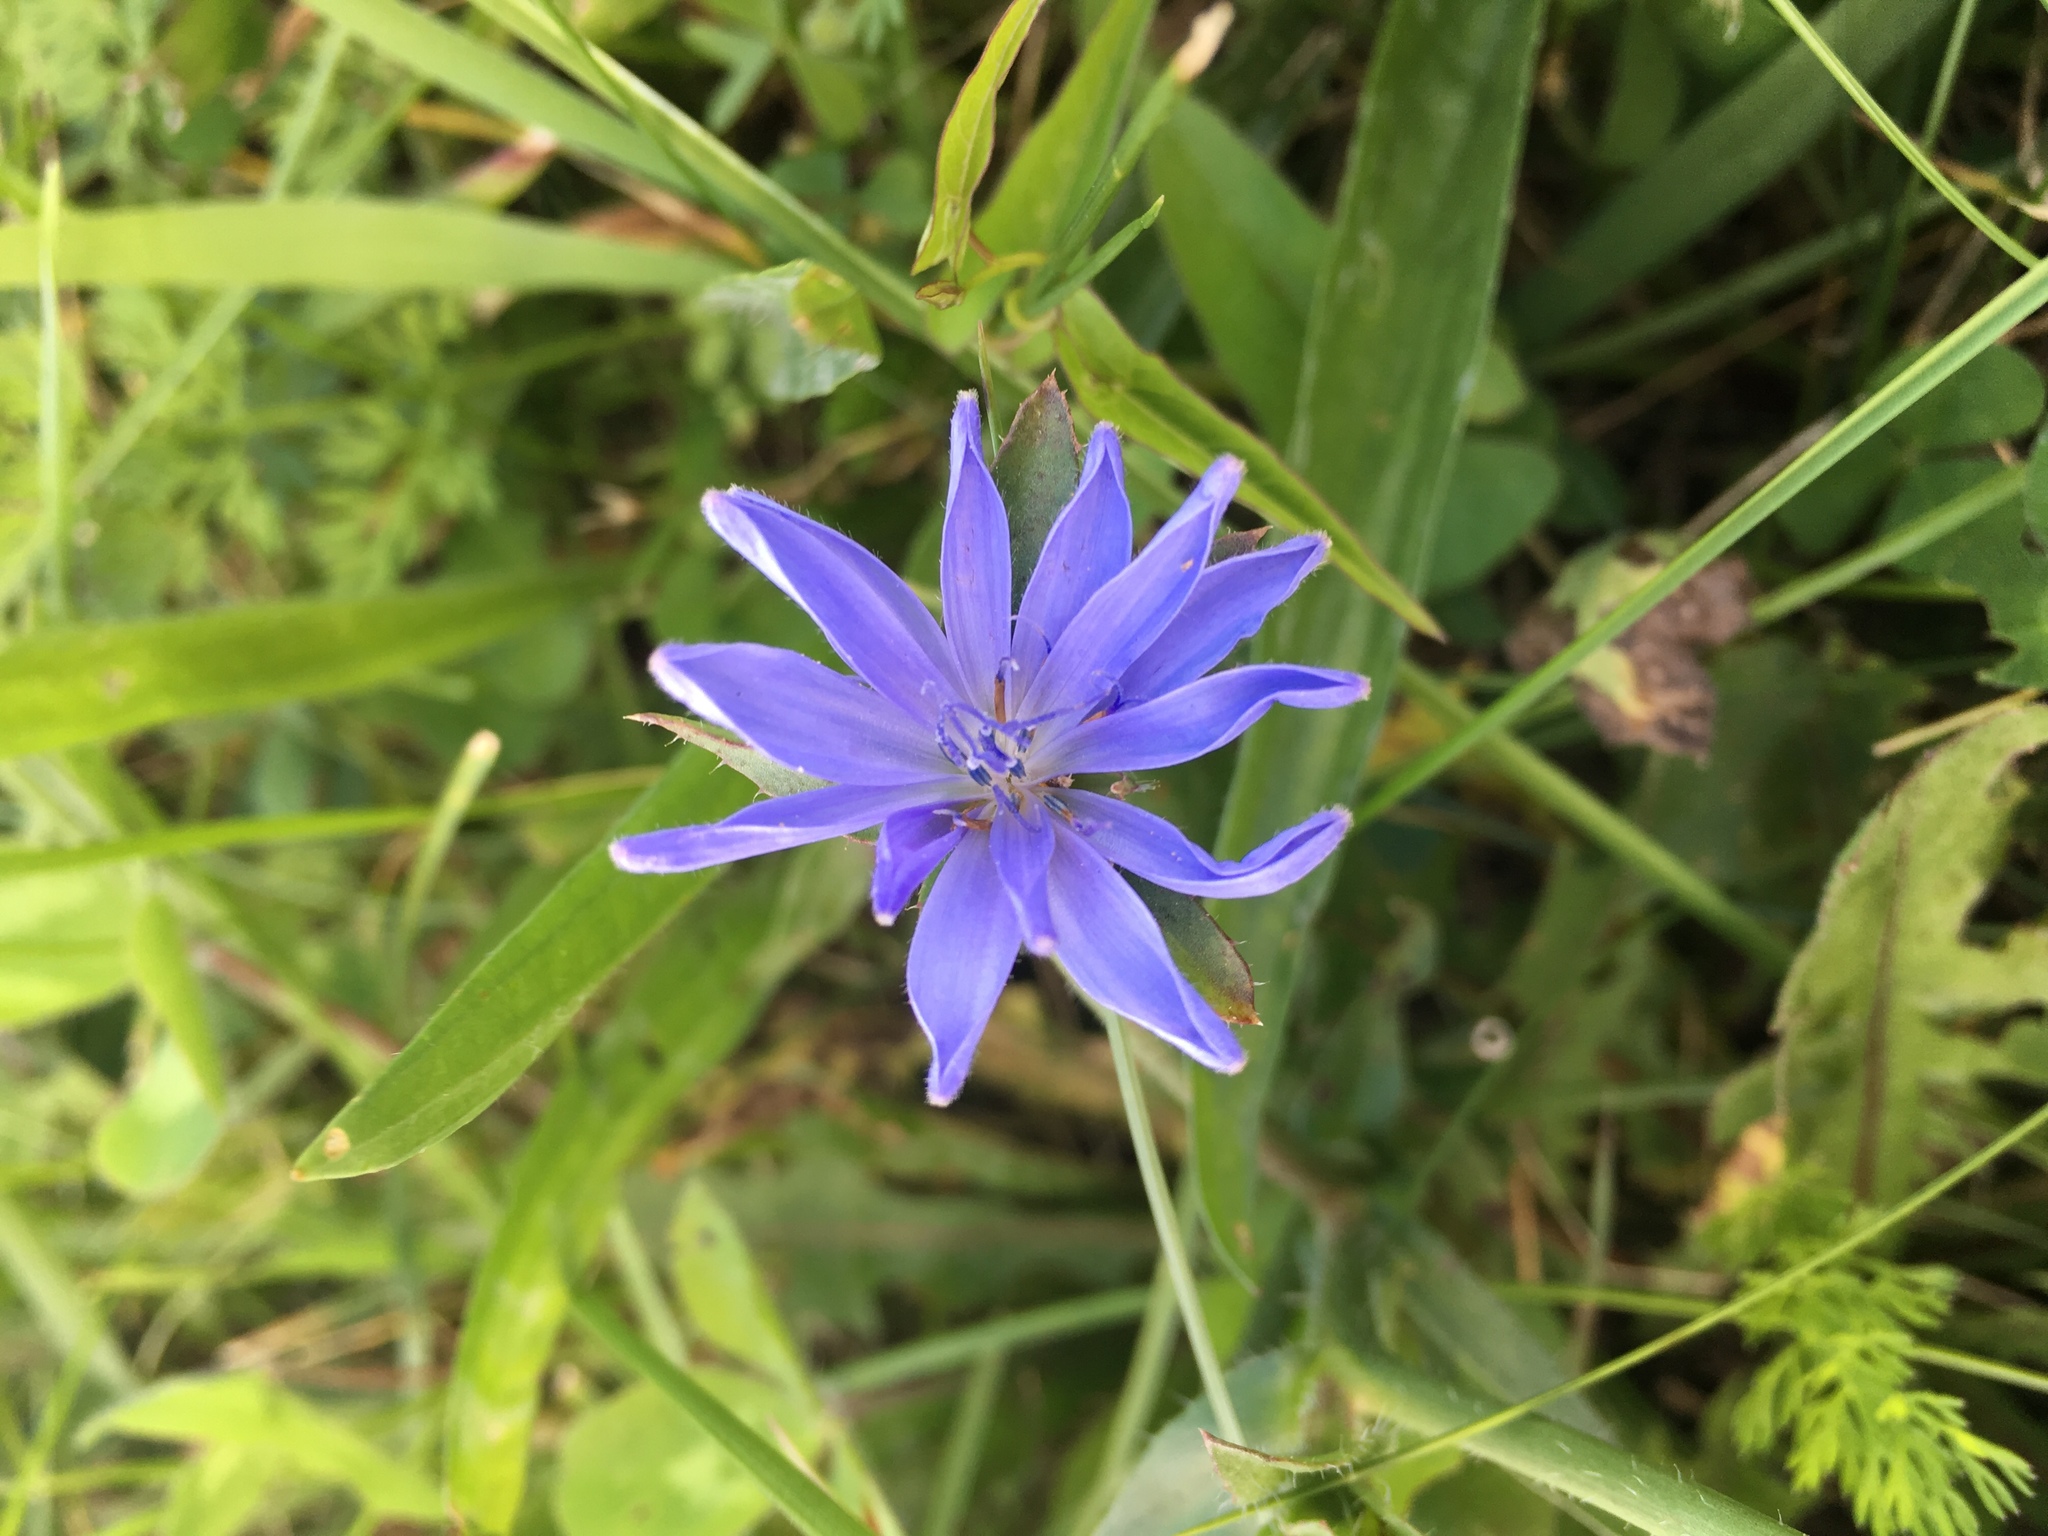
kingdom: Plantae
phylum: Tracheophyta
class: Magnoliopsida
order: Asterales
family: Asteraceae
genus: Cichorium
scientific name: Cichorium intybus
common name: Chicory
